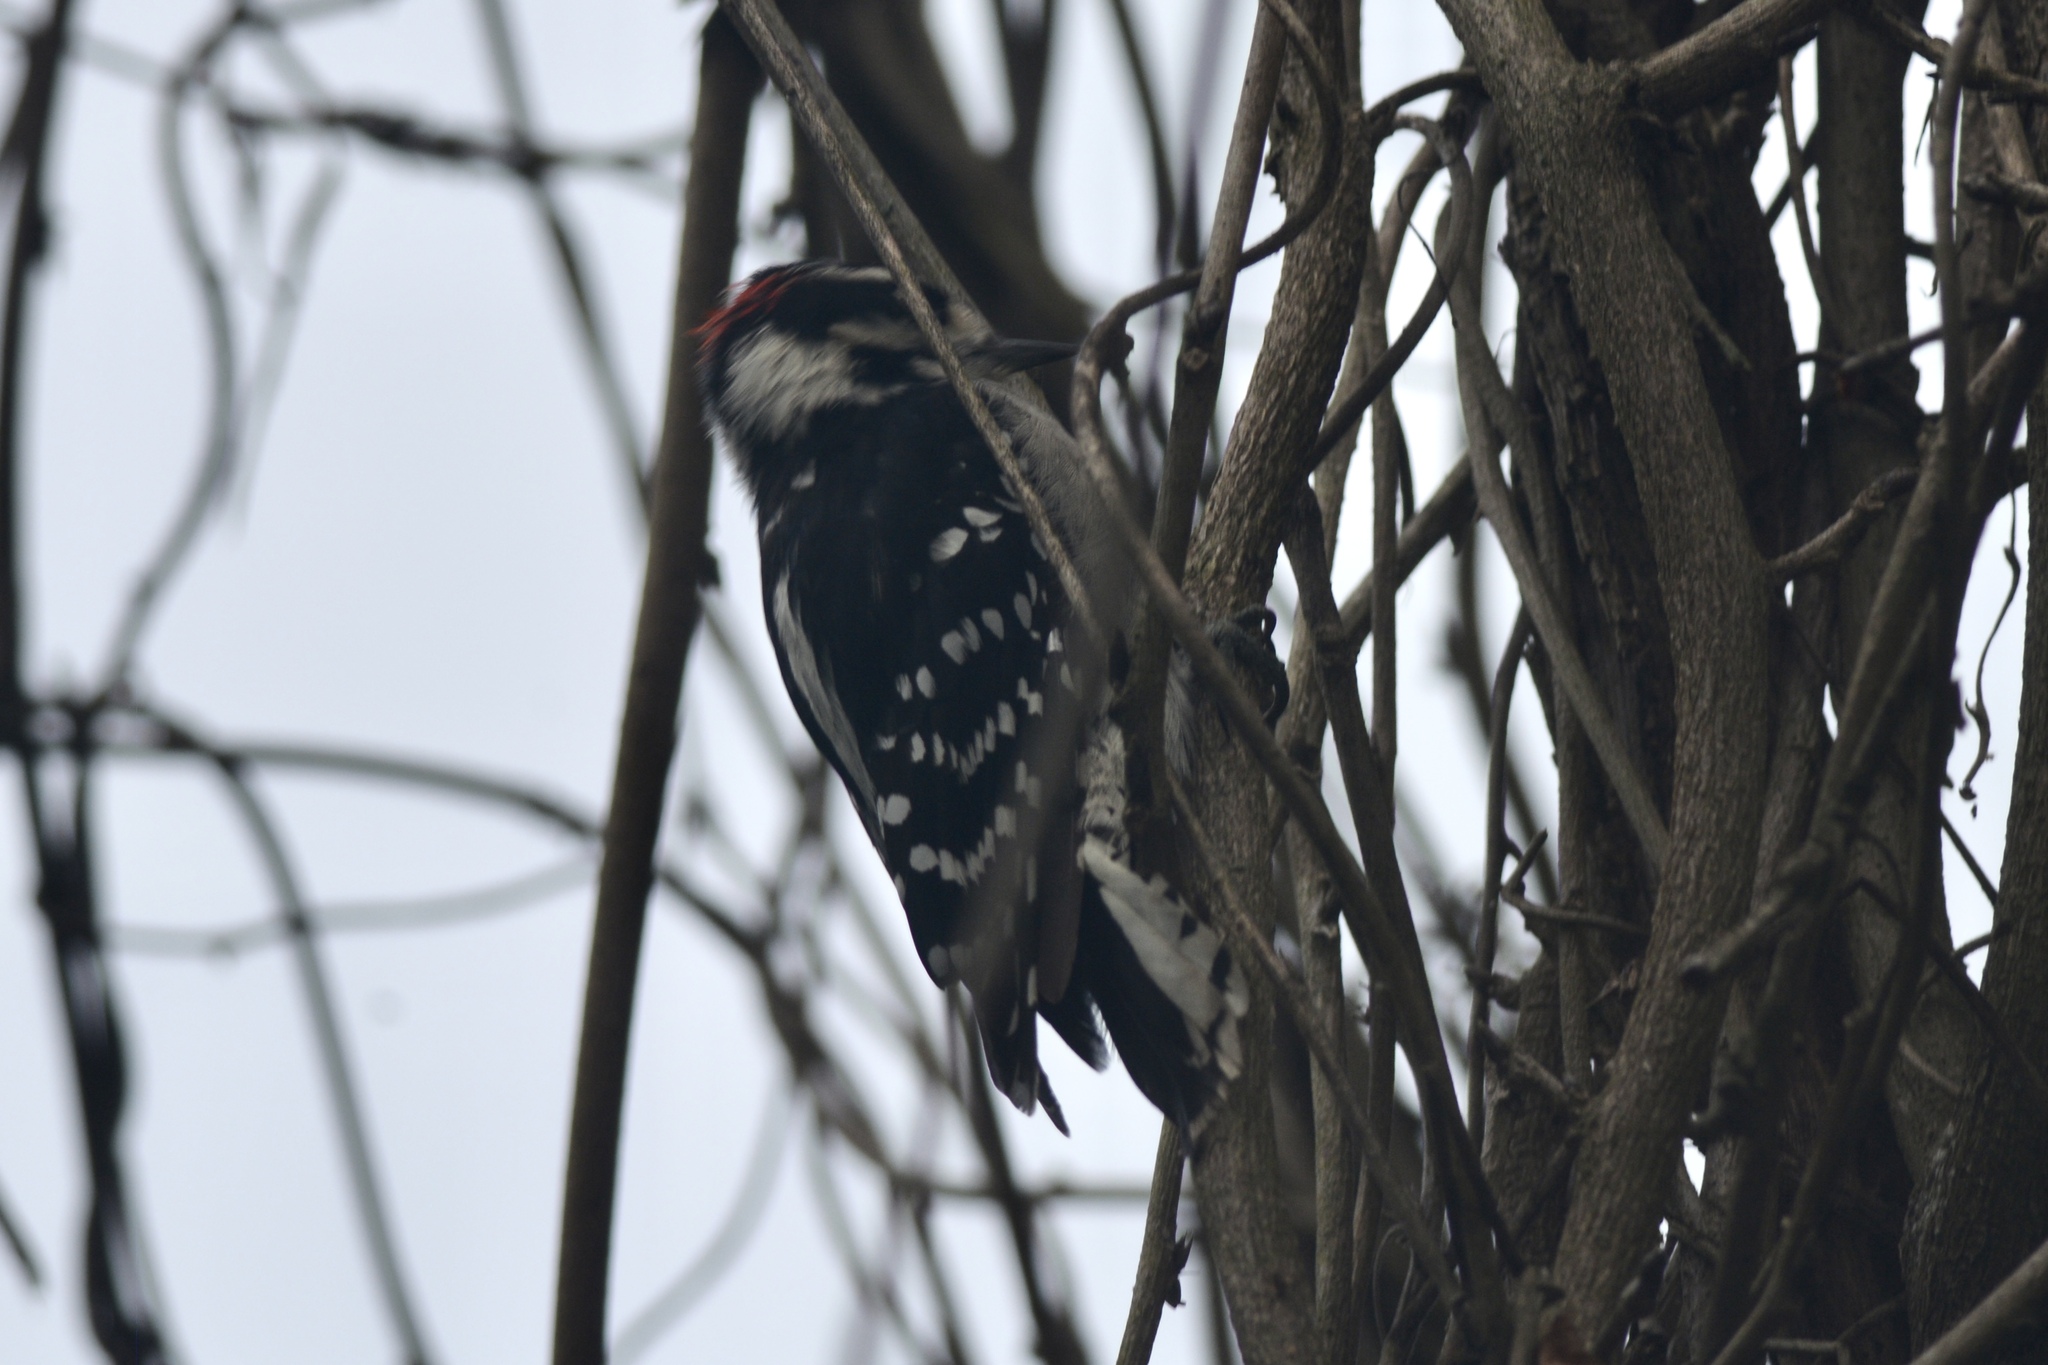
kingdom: Animalia
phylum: Chordata
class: Aves
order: Piciformes
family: Picidae
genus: Dryobates
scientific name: Dryobates pubescens
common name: Downy woodpecker
